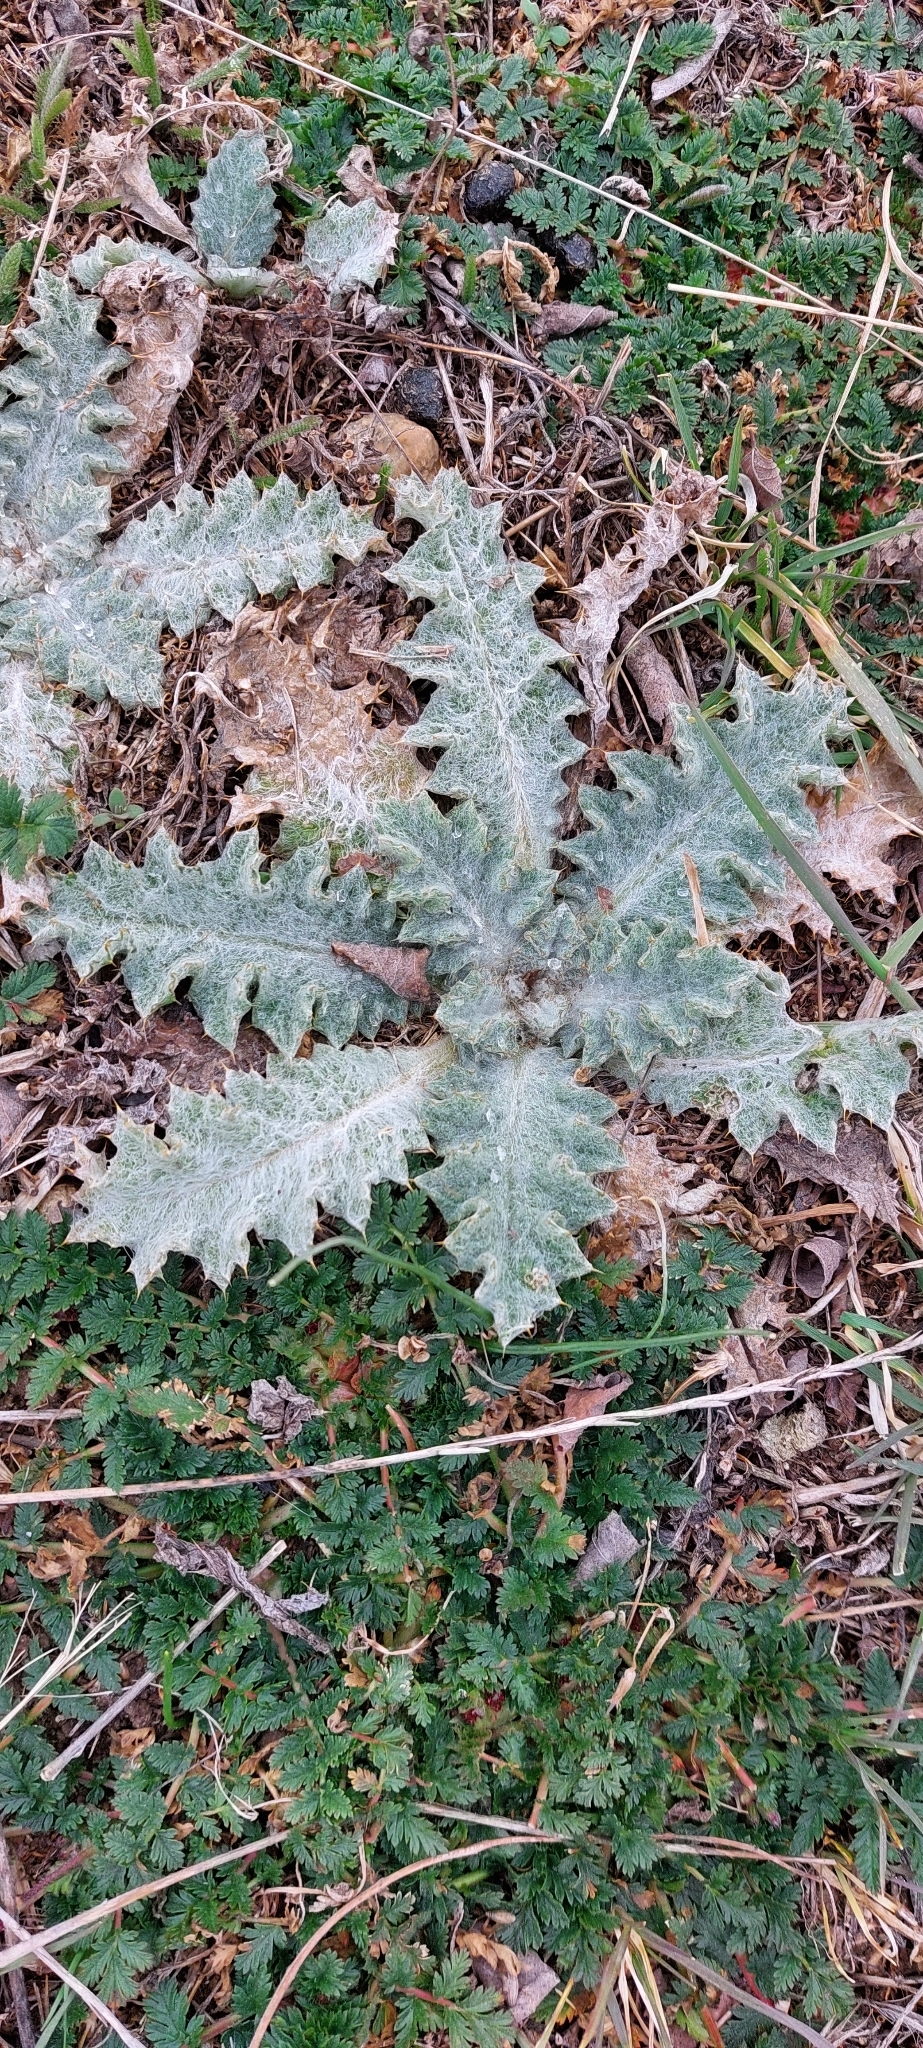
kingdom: Plantae
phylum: Tracheophyta
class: Magnoliopsida
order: Asterales
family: Asteraceae
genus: Onopordum
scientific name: Onopordum acanthium
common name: Scotch thistle
